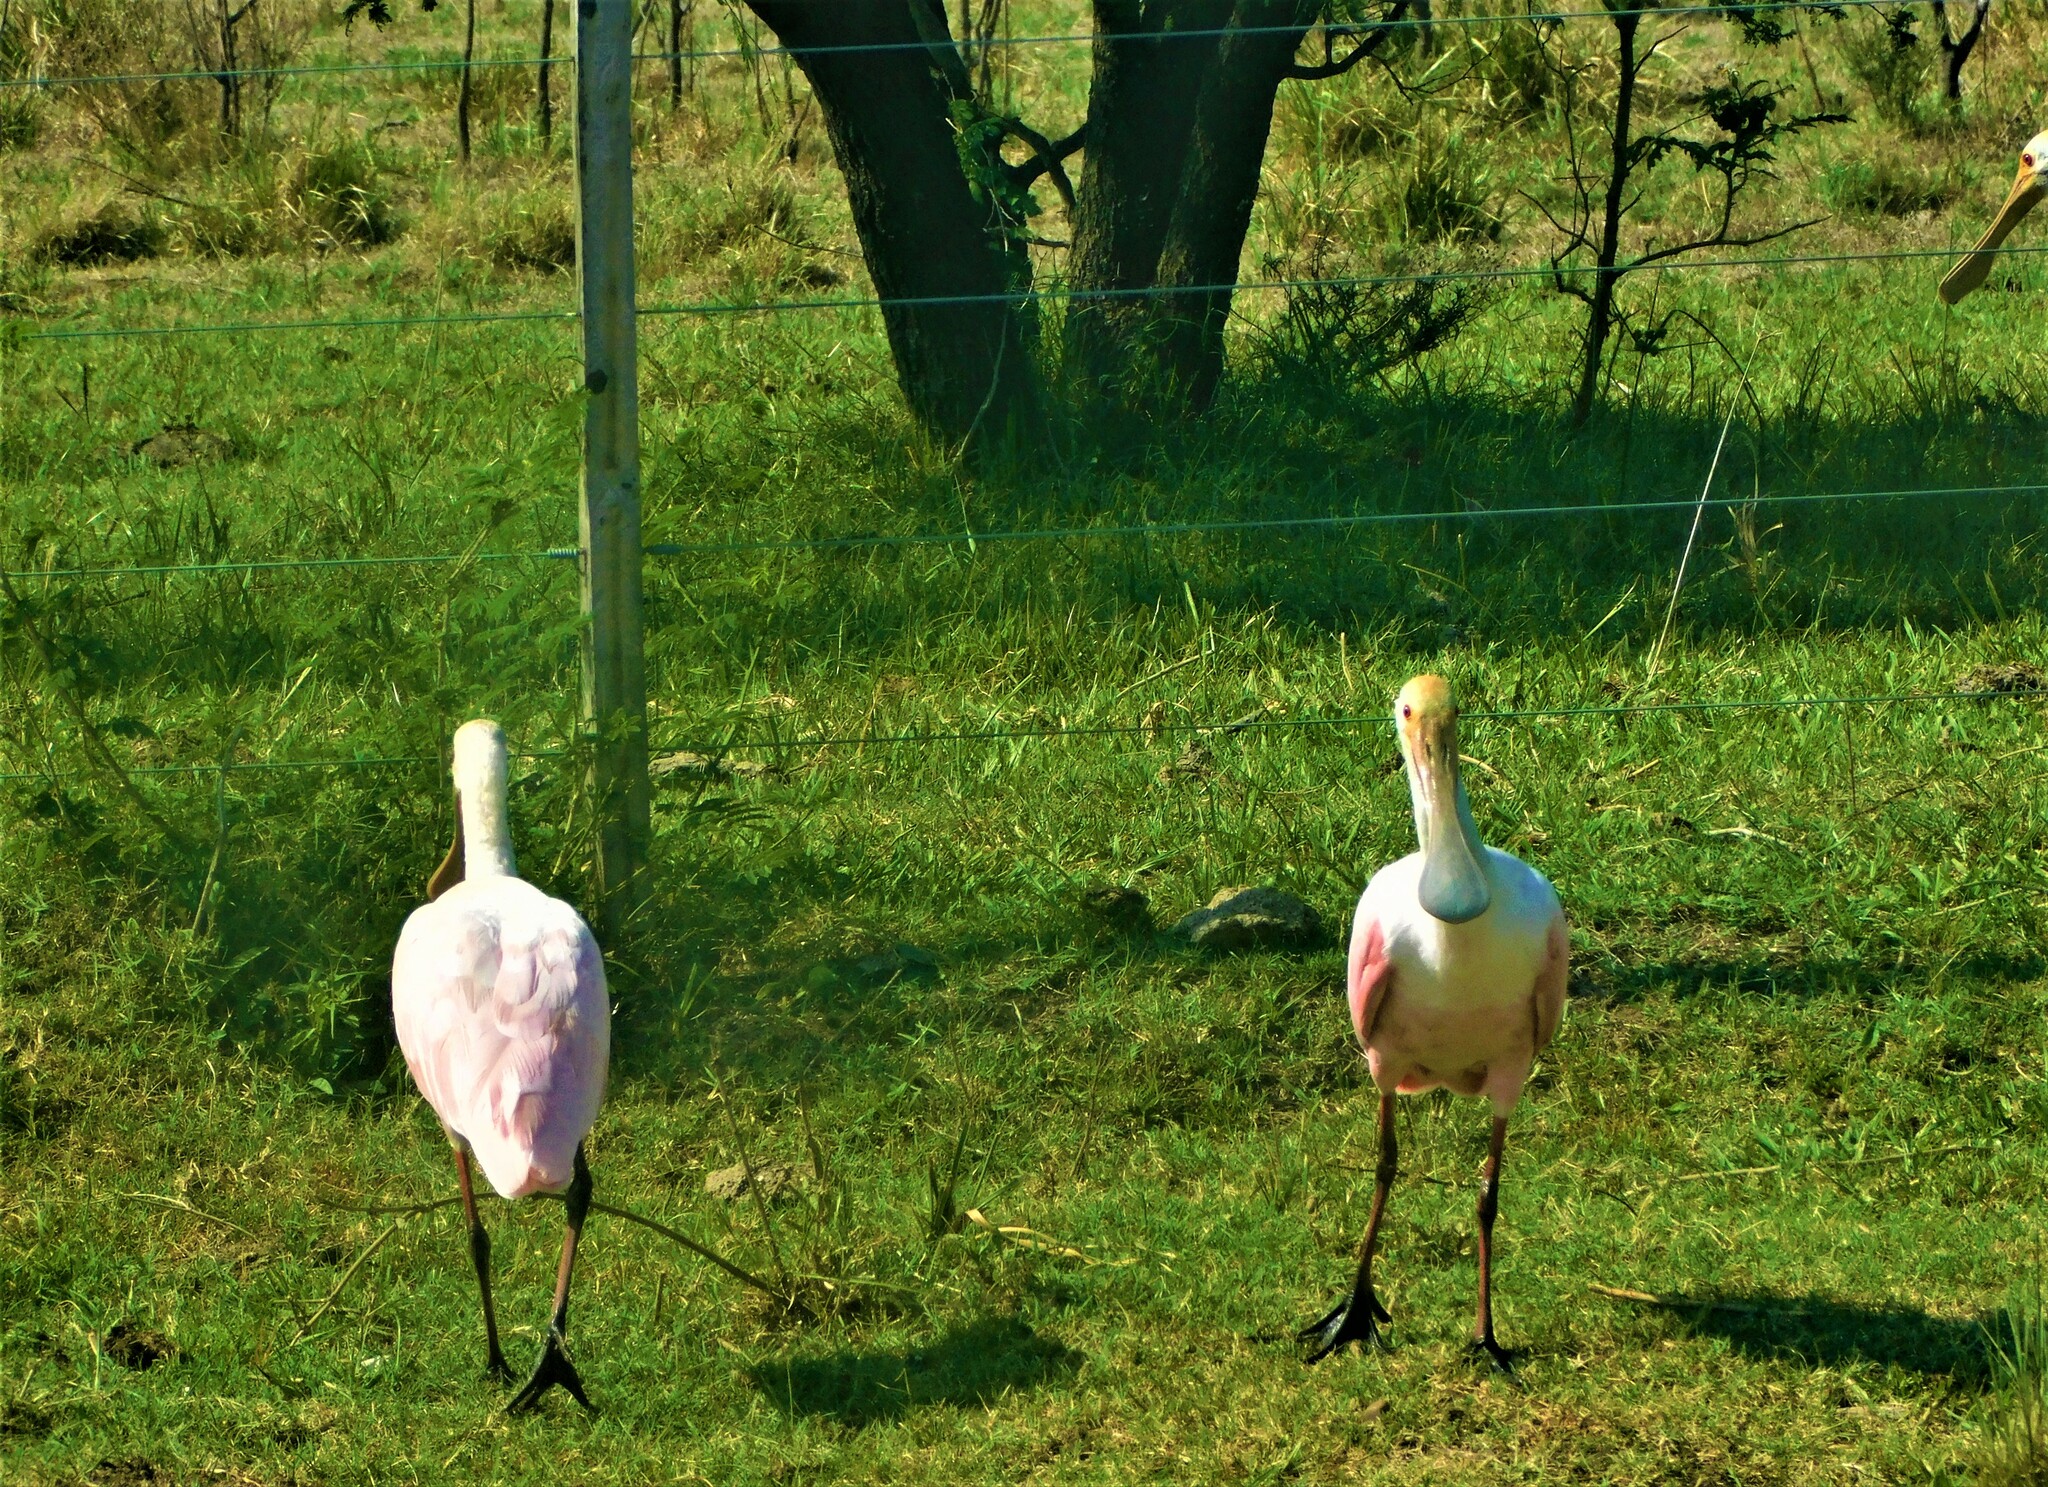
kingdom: Animalia
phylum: Chordata
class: Aves
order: Pelecaniformes
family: Threskiornithidae
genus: Platalea
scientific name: Platalea ajaja
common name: Roseate spoonbill
